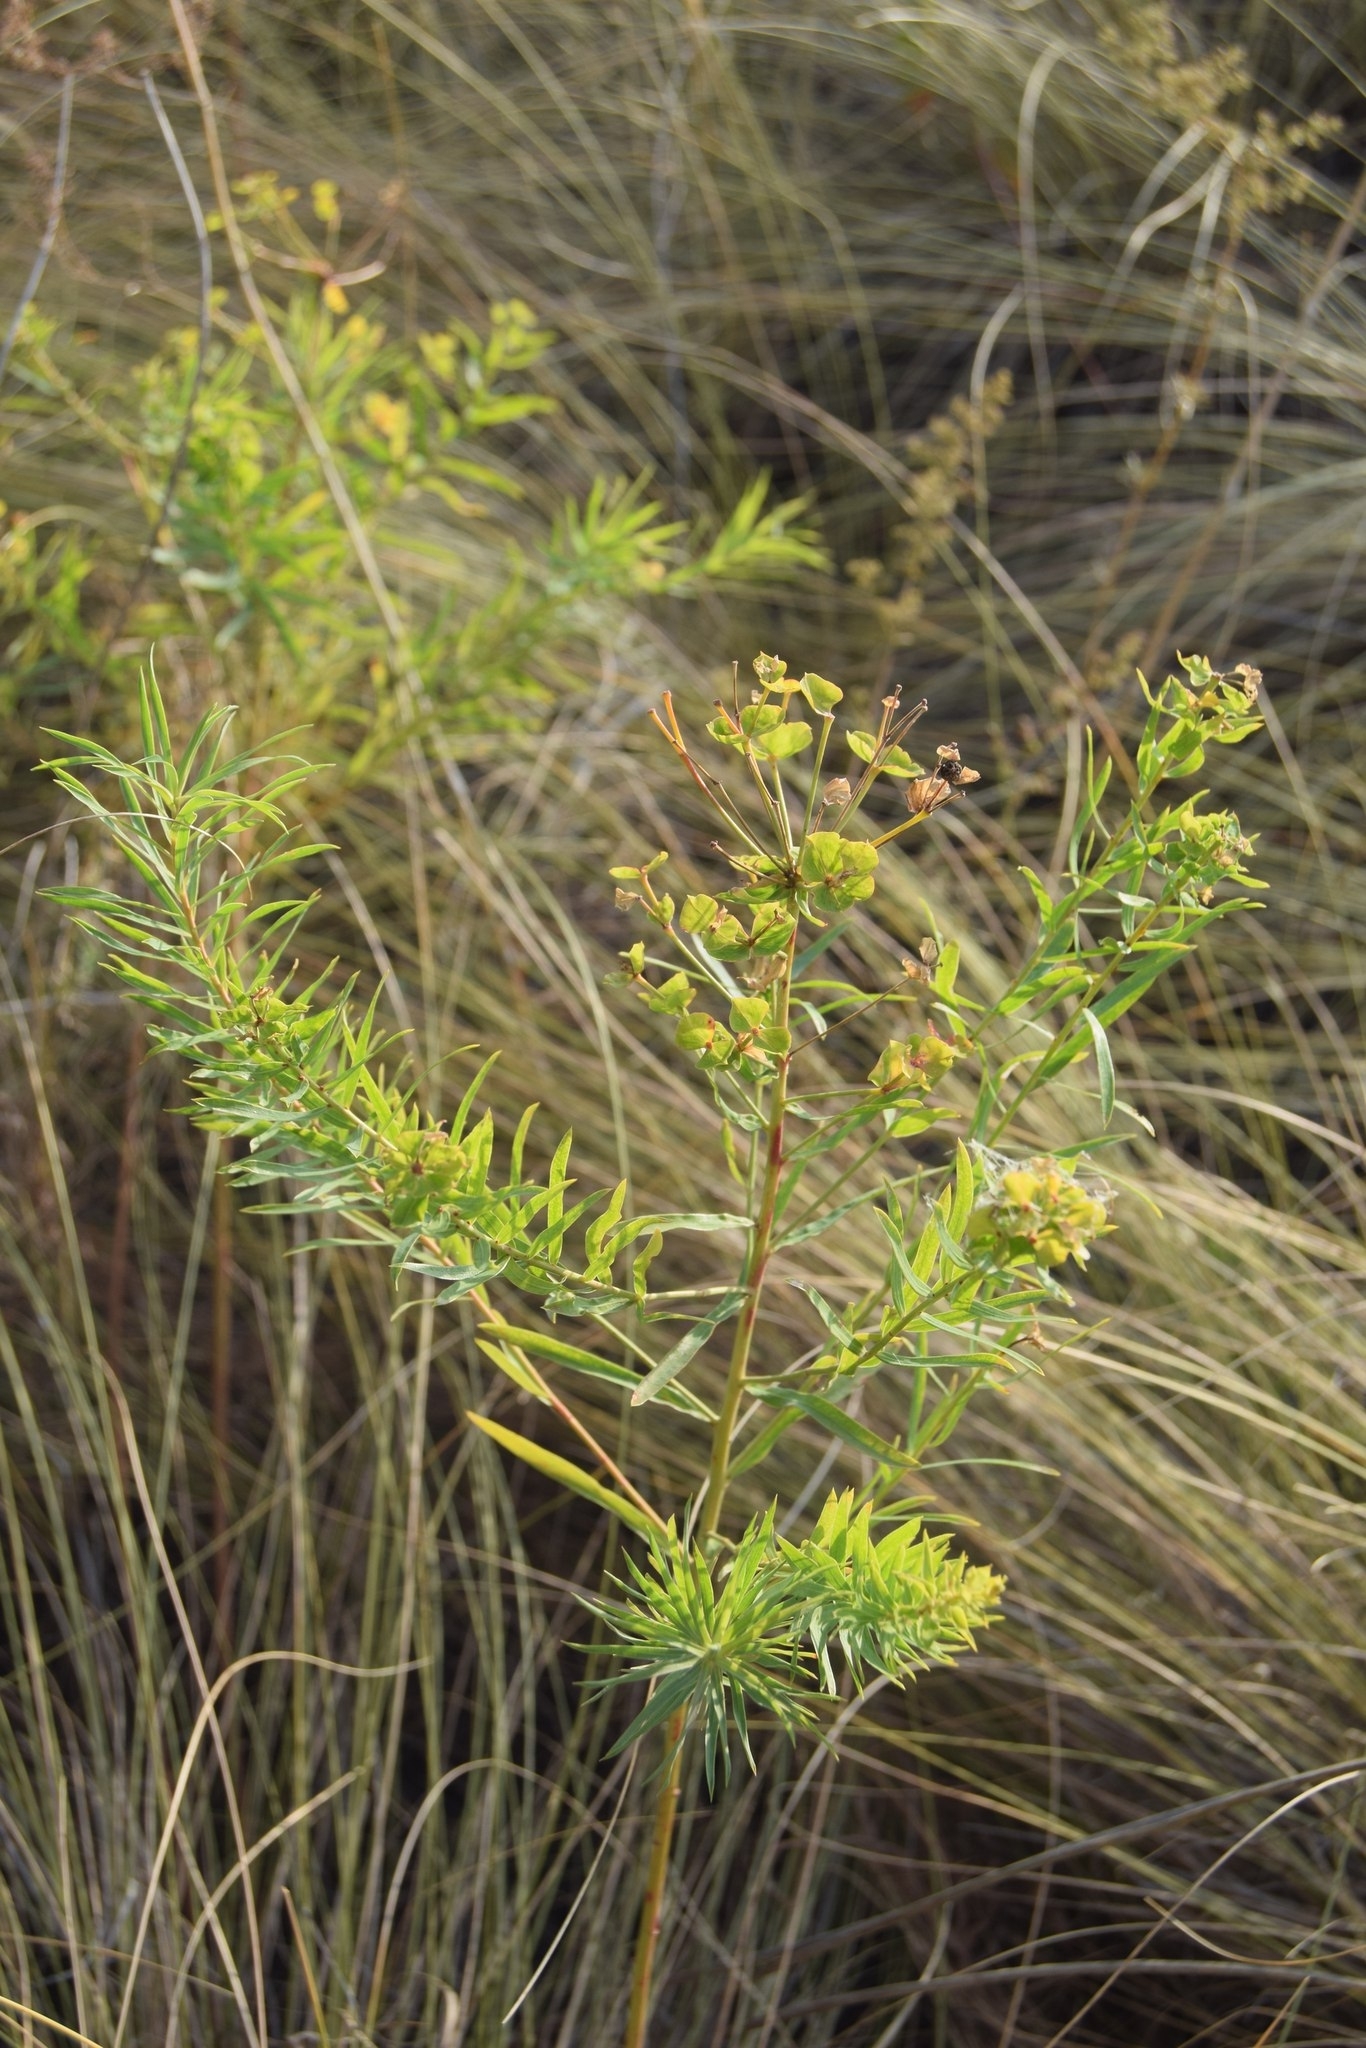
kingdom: Plantae
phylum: Tracheophyta
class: Magnoliopsida
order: Malpighiales
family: Euphorbiaceae
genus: Euphorbia
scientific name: Euphorbia virgata
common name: Leafy spurge
